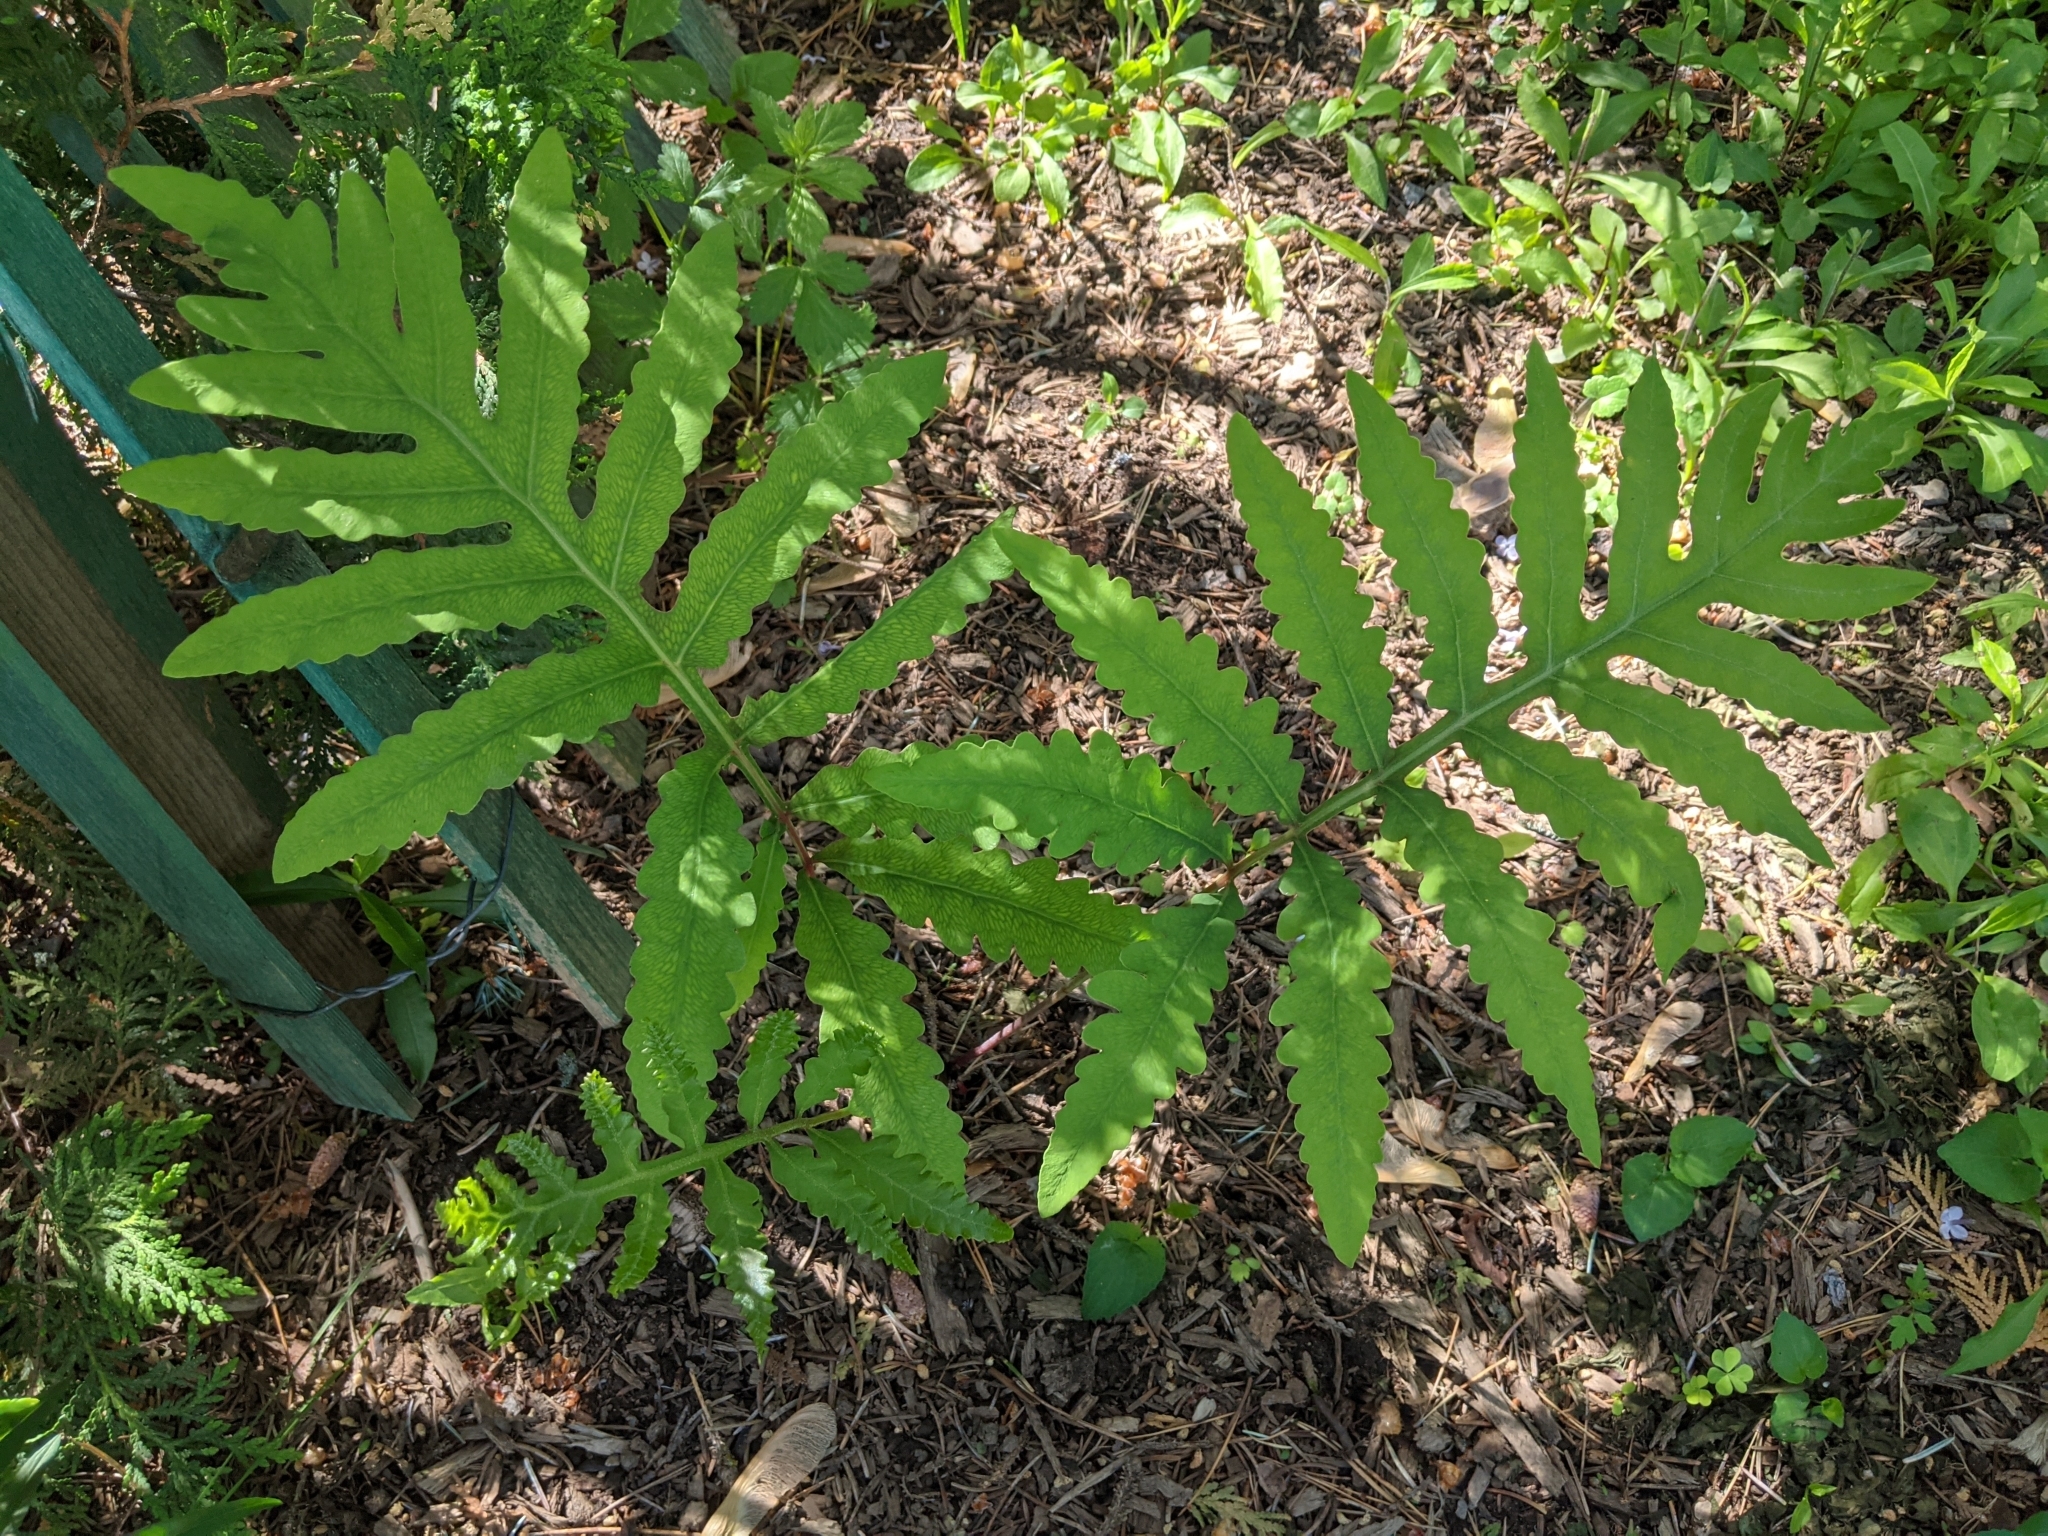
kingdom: Plantae
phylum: Tracheophyta
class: Polypodiopsida
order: Polypodiales
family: Onocleaceae
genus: Onoclea
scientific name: Onoclea sensibilis
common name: Sensitive fern
